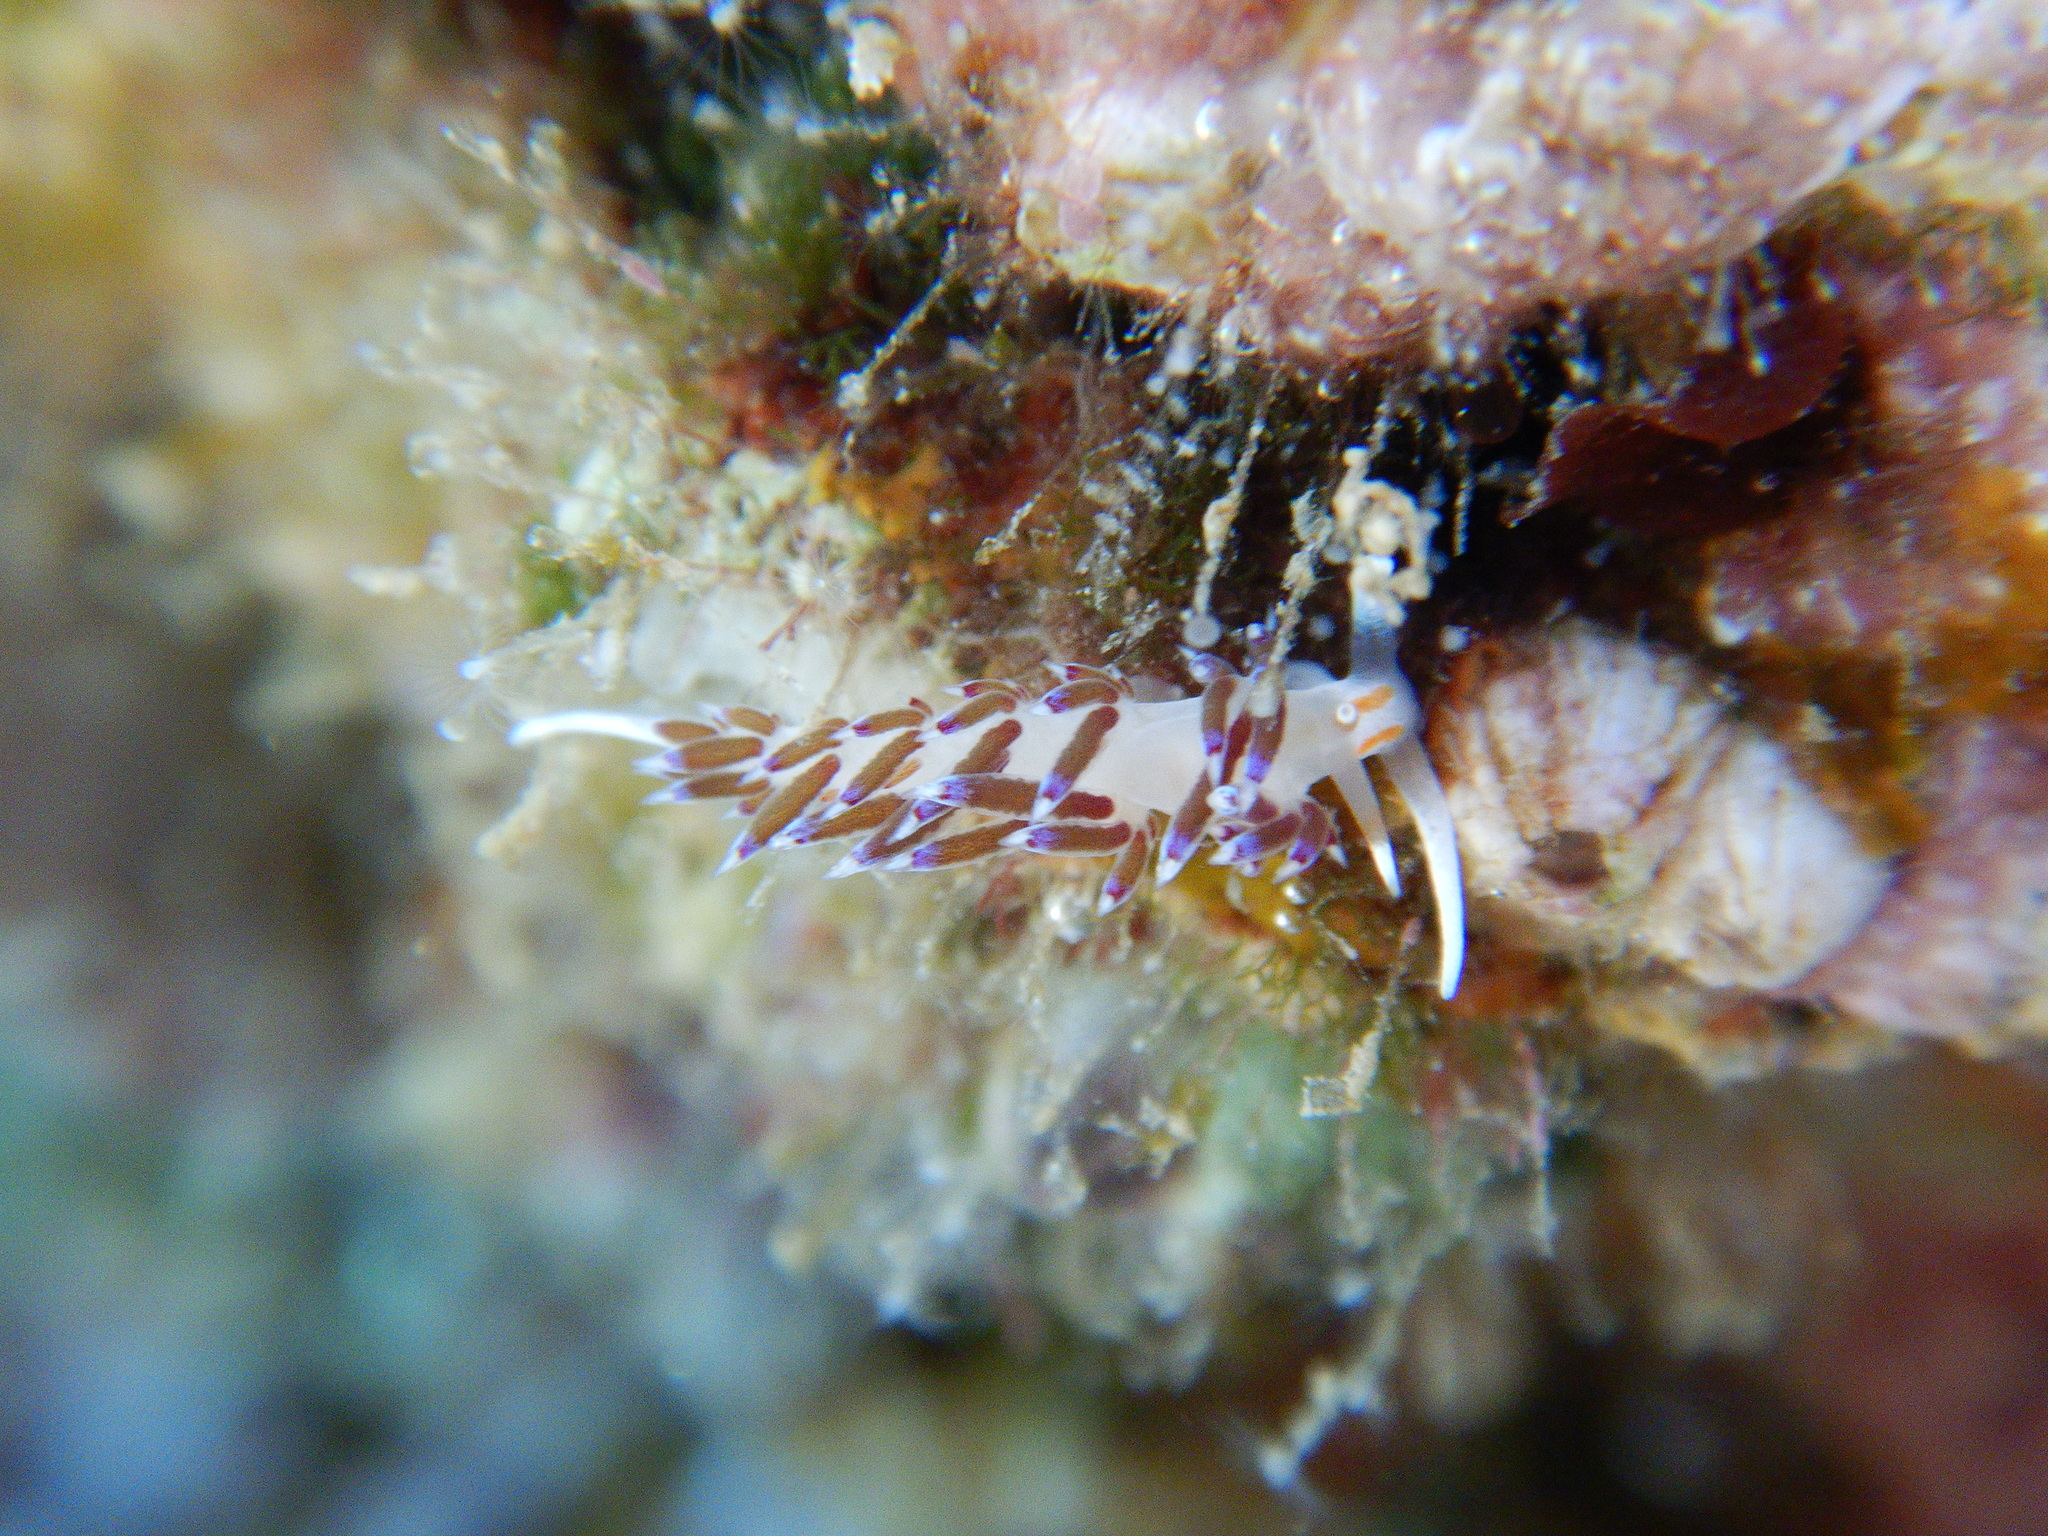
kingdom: Animalia
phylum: Mollusca
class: Gastropoda
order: Nudibranchia
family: Facelinidae
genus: Cratena
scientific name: Cratena peregrina
